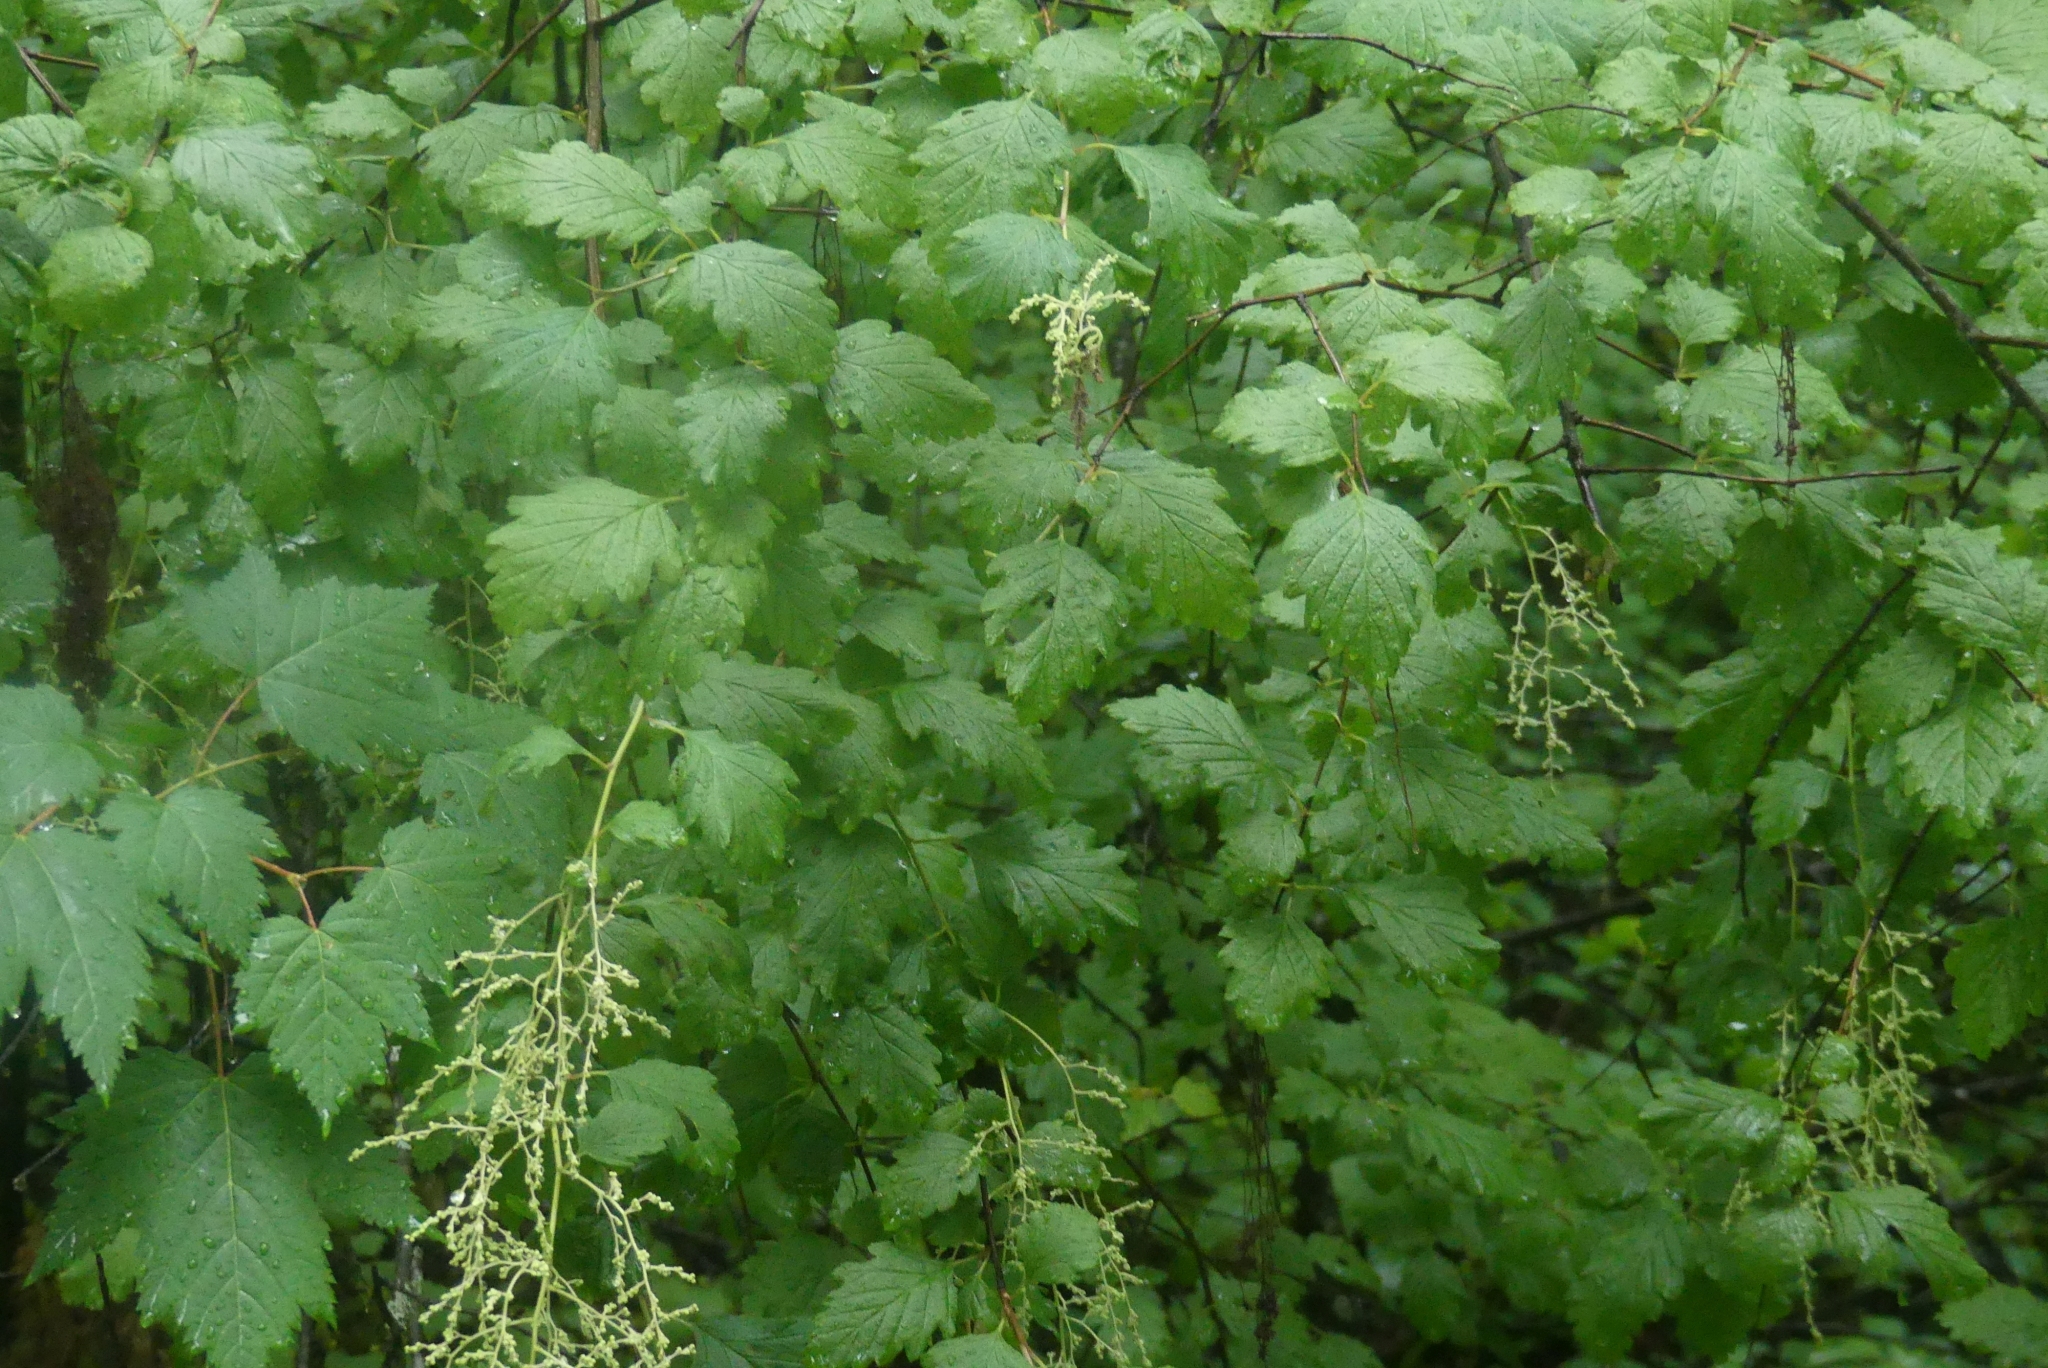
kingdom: Plantae
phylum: Tracheophyta
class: Magnoliopsida
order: Rosales
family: Rosaceae
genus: Holodiscus
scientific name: Holodiscus discolor
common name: Oceanspray
